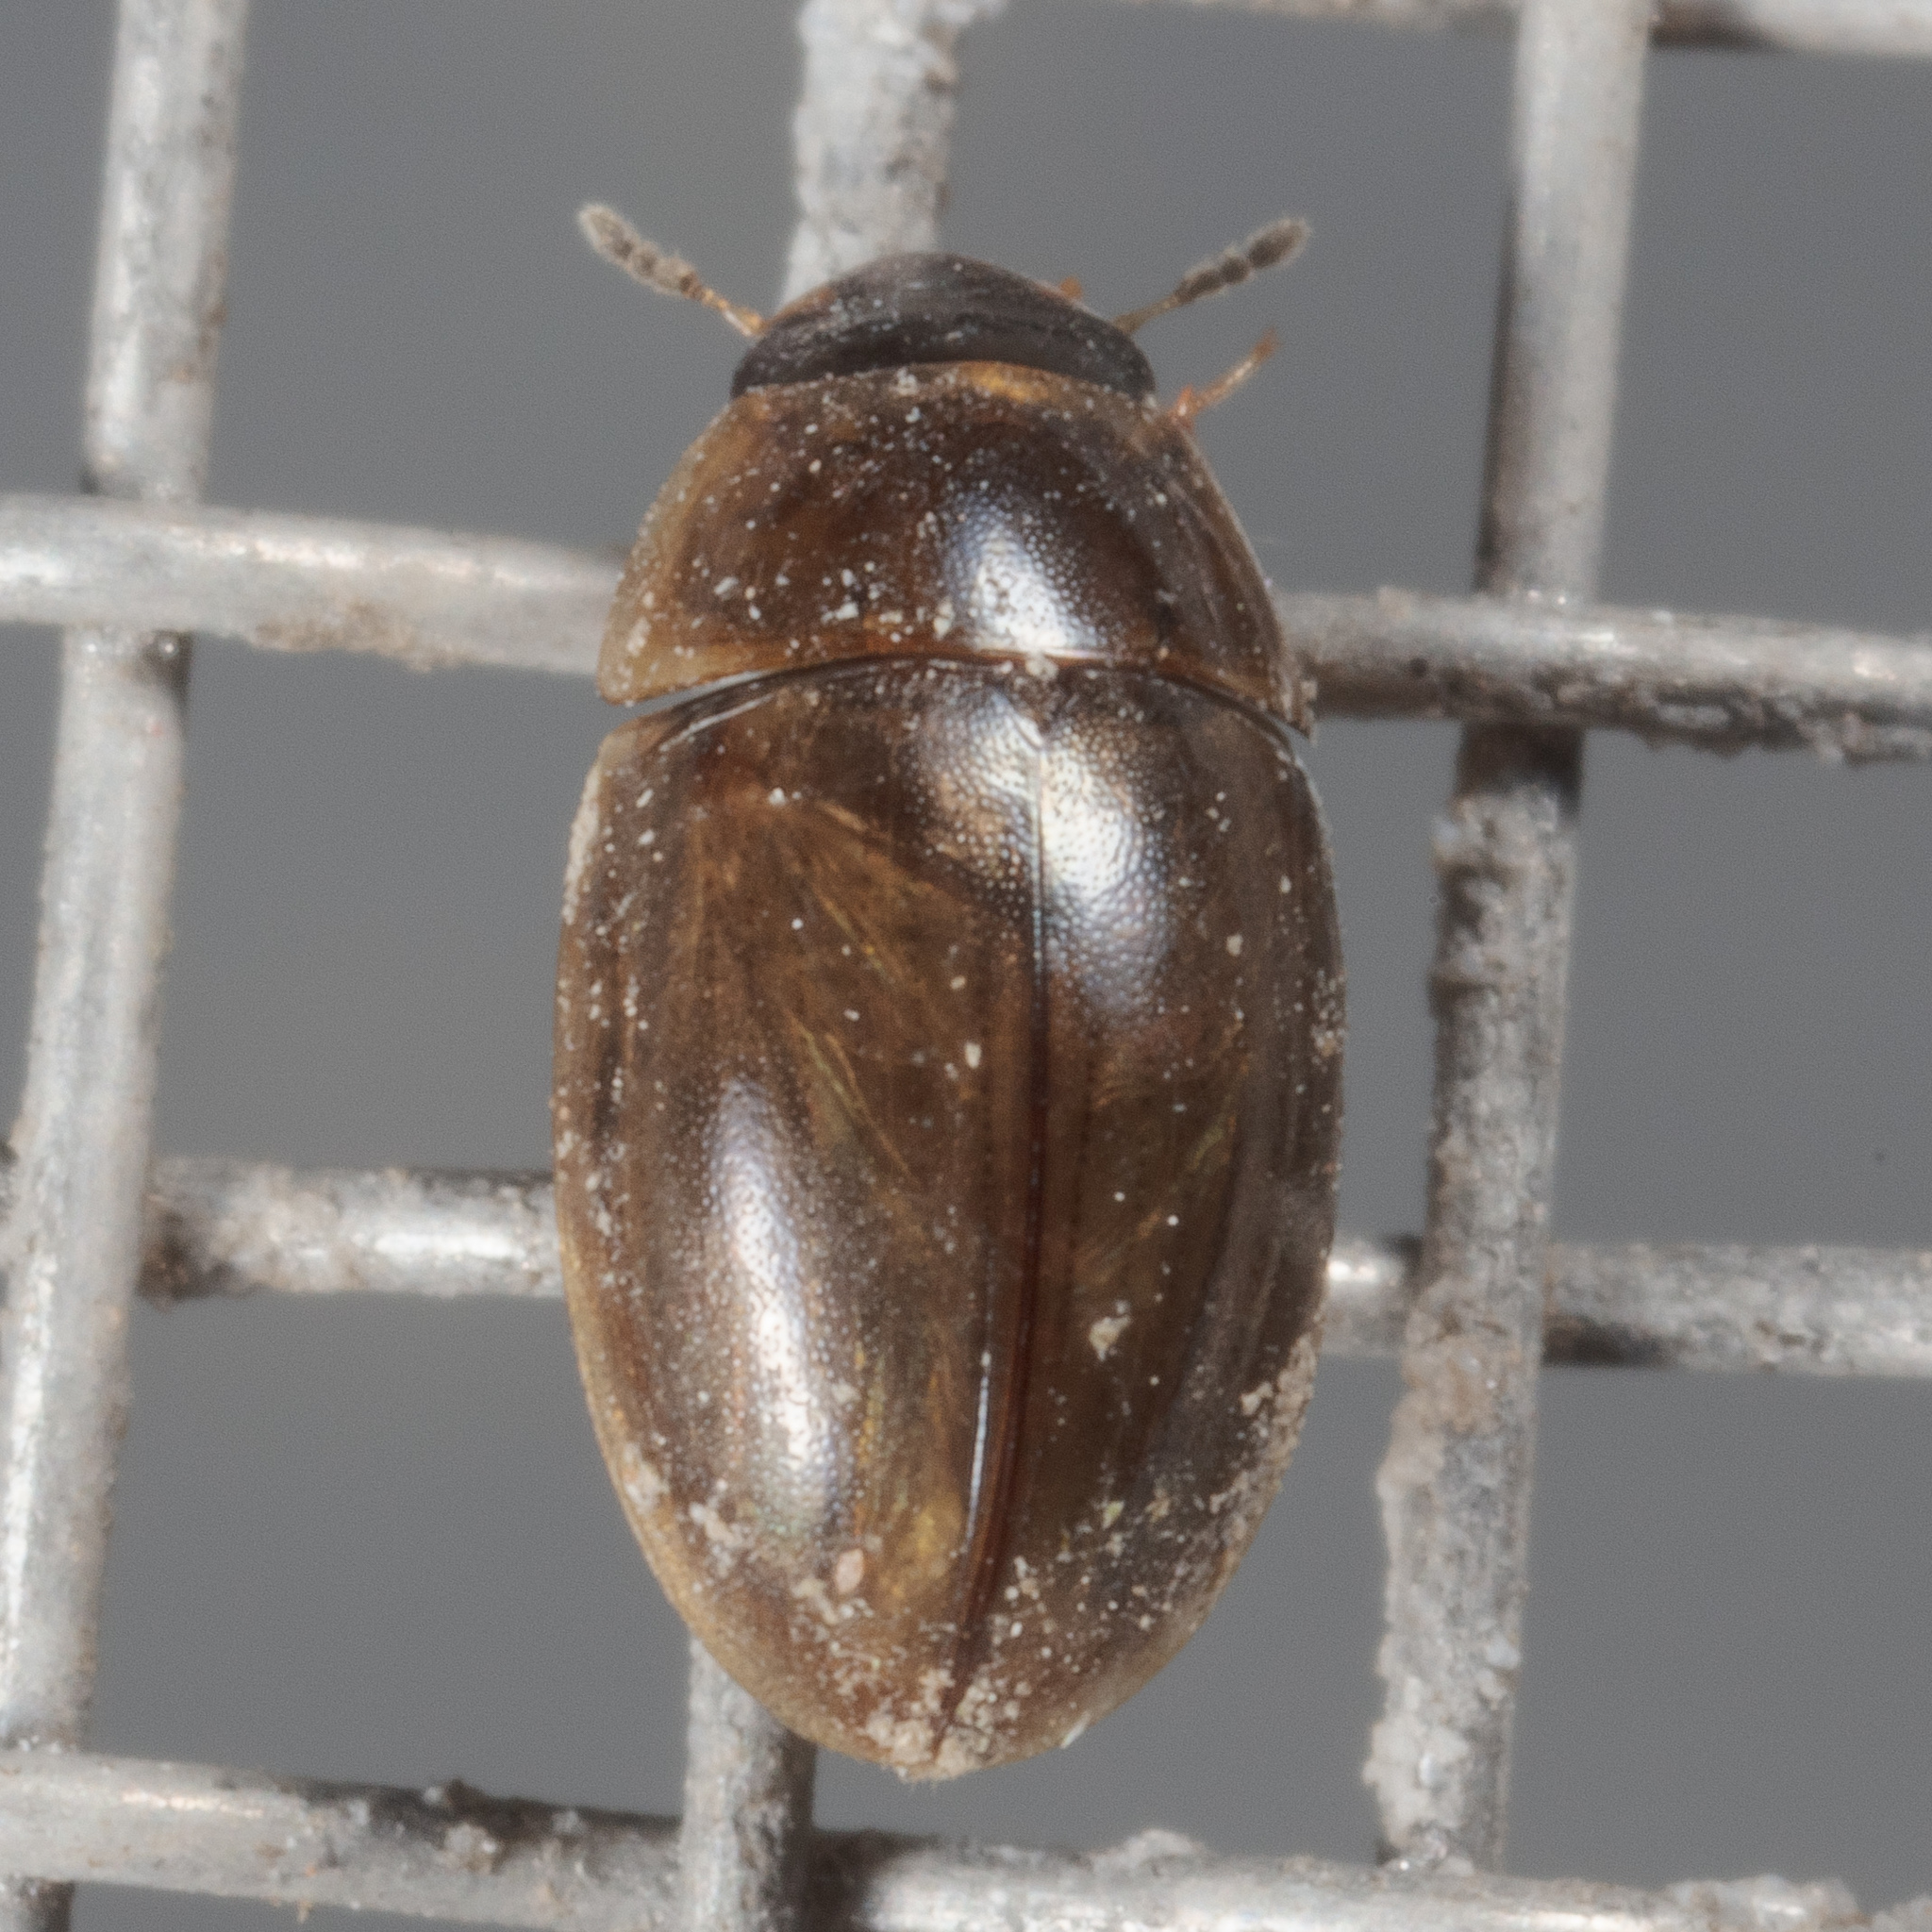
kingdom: Animalia
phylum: Arthropoda
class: Insecta
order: Coleoptera
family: Hydrophilidae
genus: Enochrus
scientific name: Enochrus
